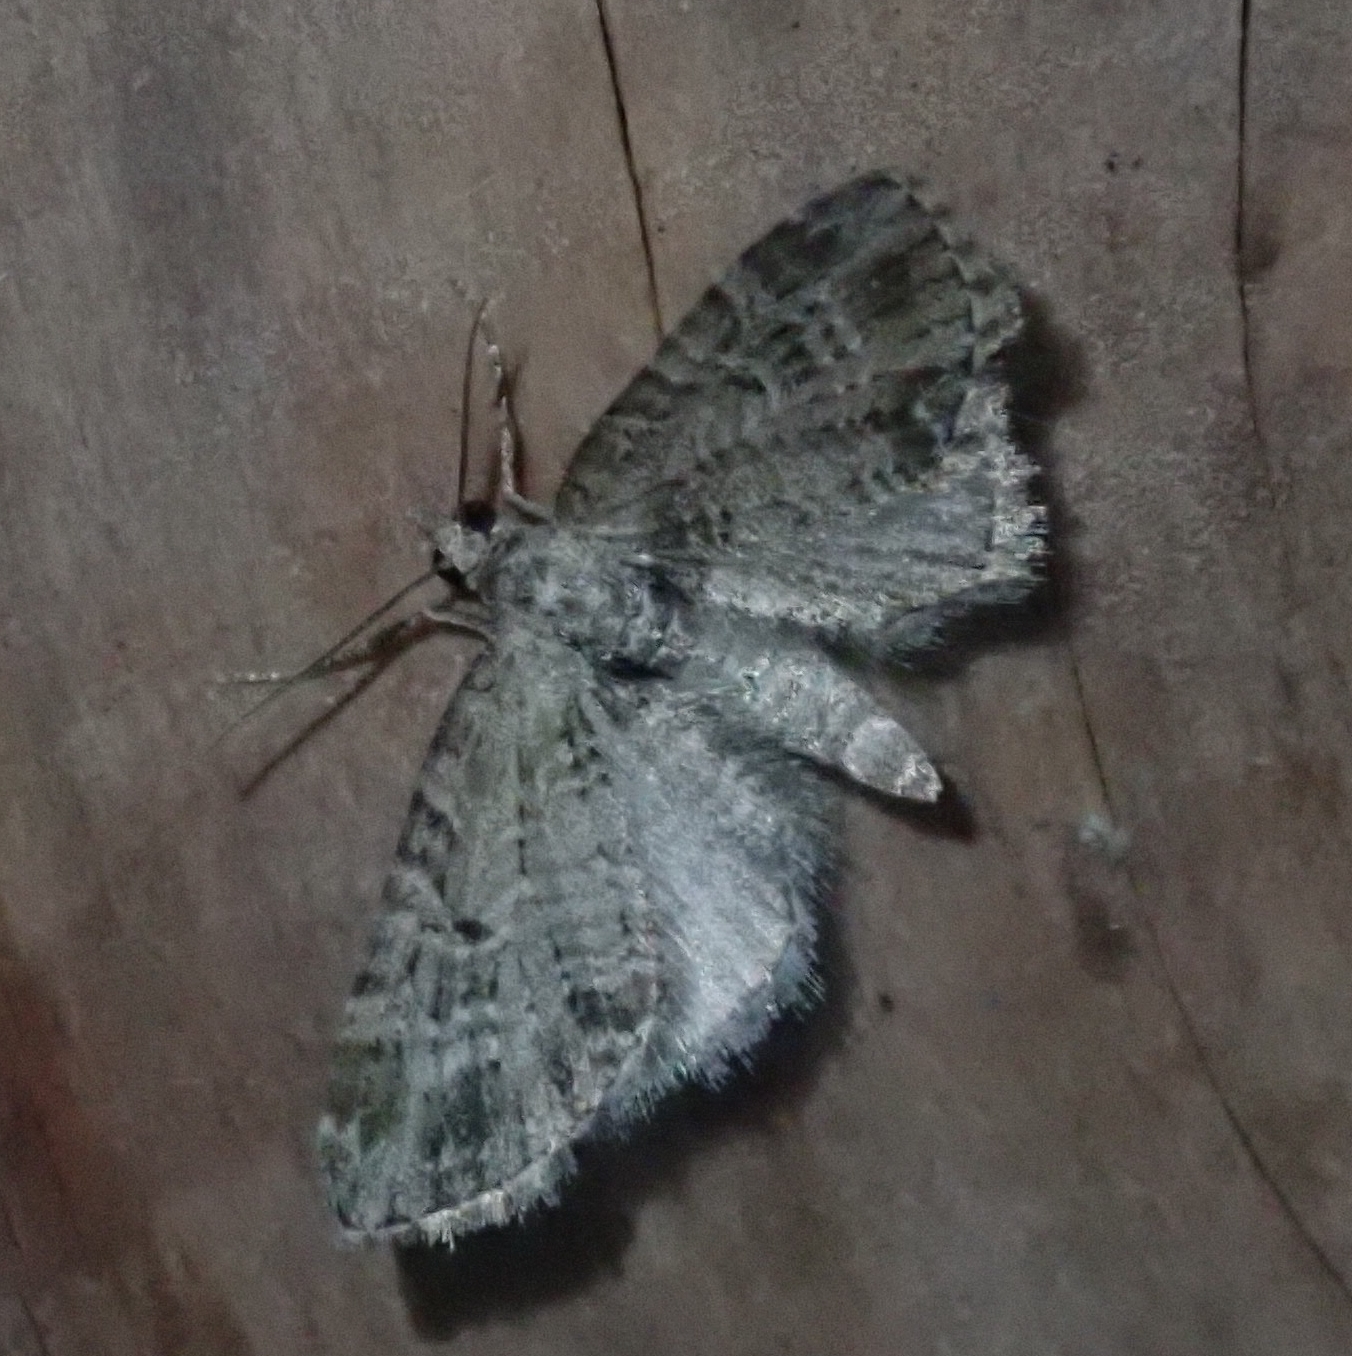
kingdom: Animalia
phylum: Arthropoda
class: Insecta
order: Lepidoptera
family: Geometridae
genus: Eupithecia
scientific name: Eupithecia exiguata
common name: Mottled pug
